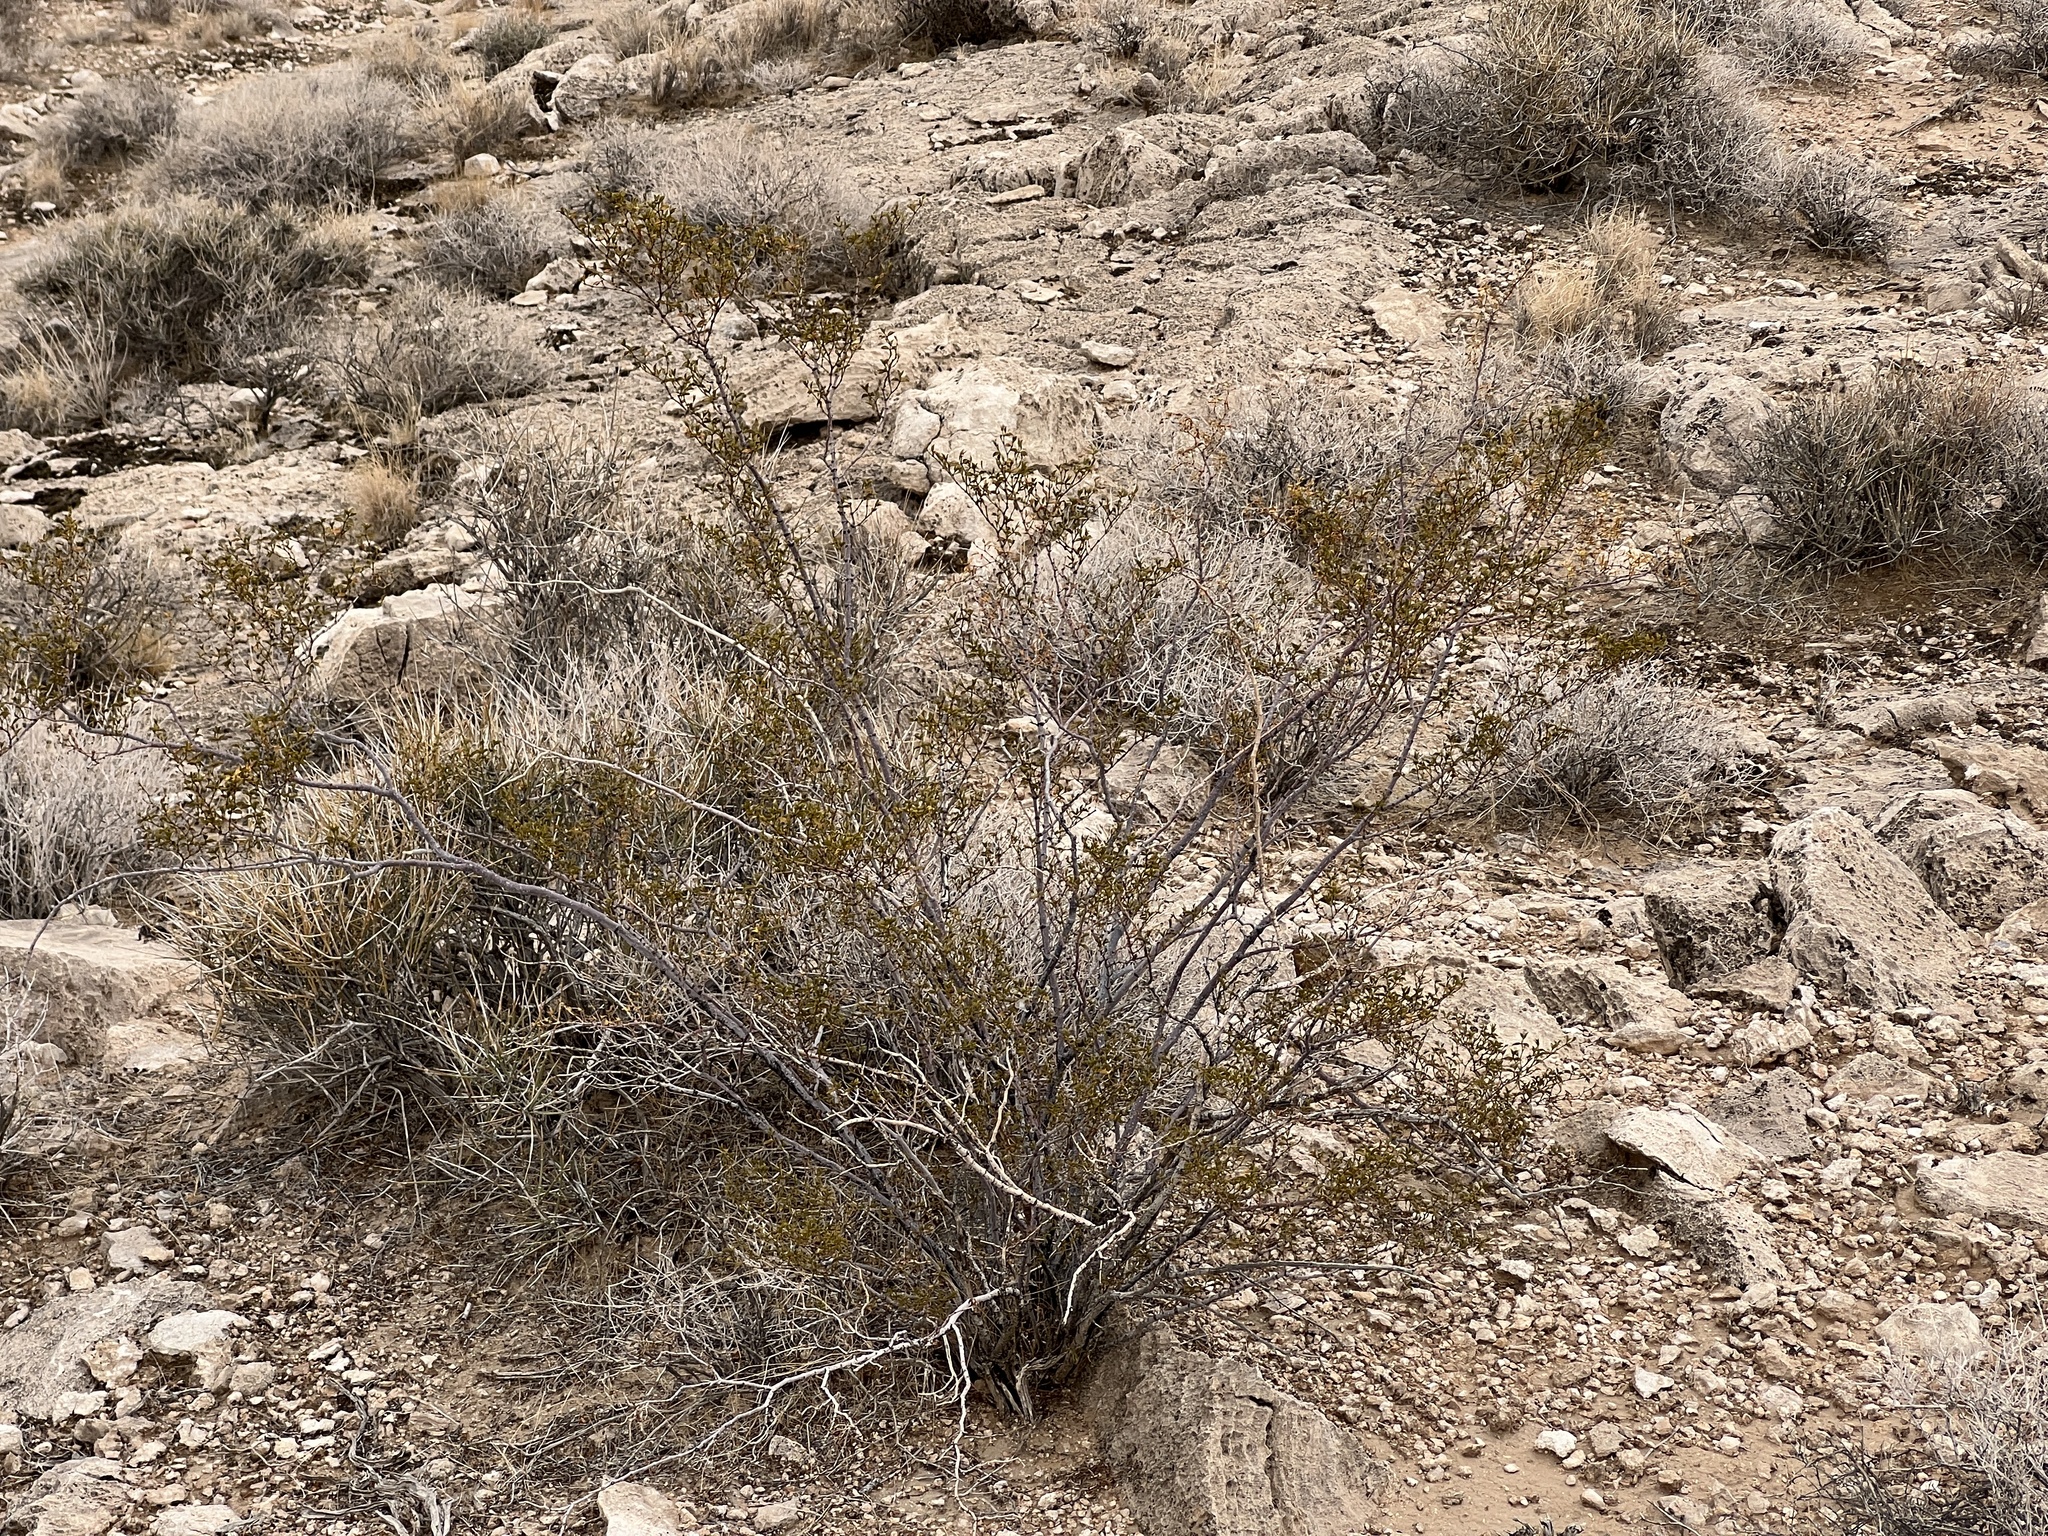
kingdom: Plantae
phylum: Tracheophyta
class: Magnoliopsida
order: Zygophyllales
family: Zygophyllaceae
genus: Larrea
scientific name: Larrea tridentata
